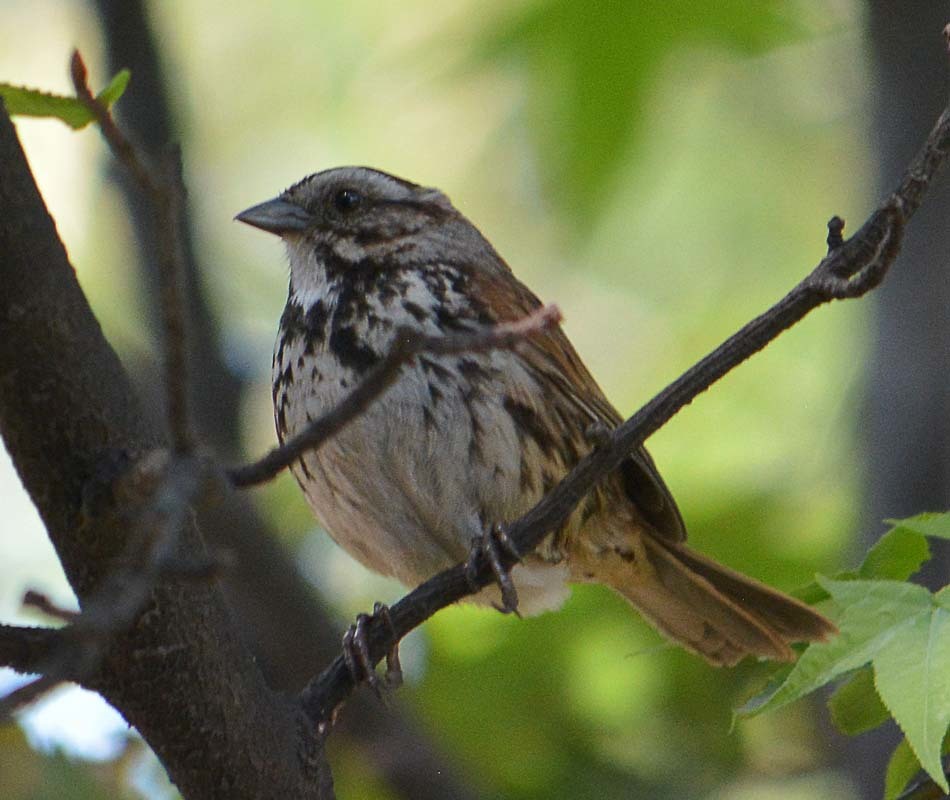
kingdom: Animalia
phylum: Chordata
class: Aves
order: Passeriformes
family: Passerellidae
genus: Melospiza
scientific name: Melospiza melodia
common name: Song sparrow
